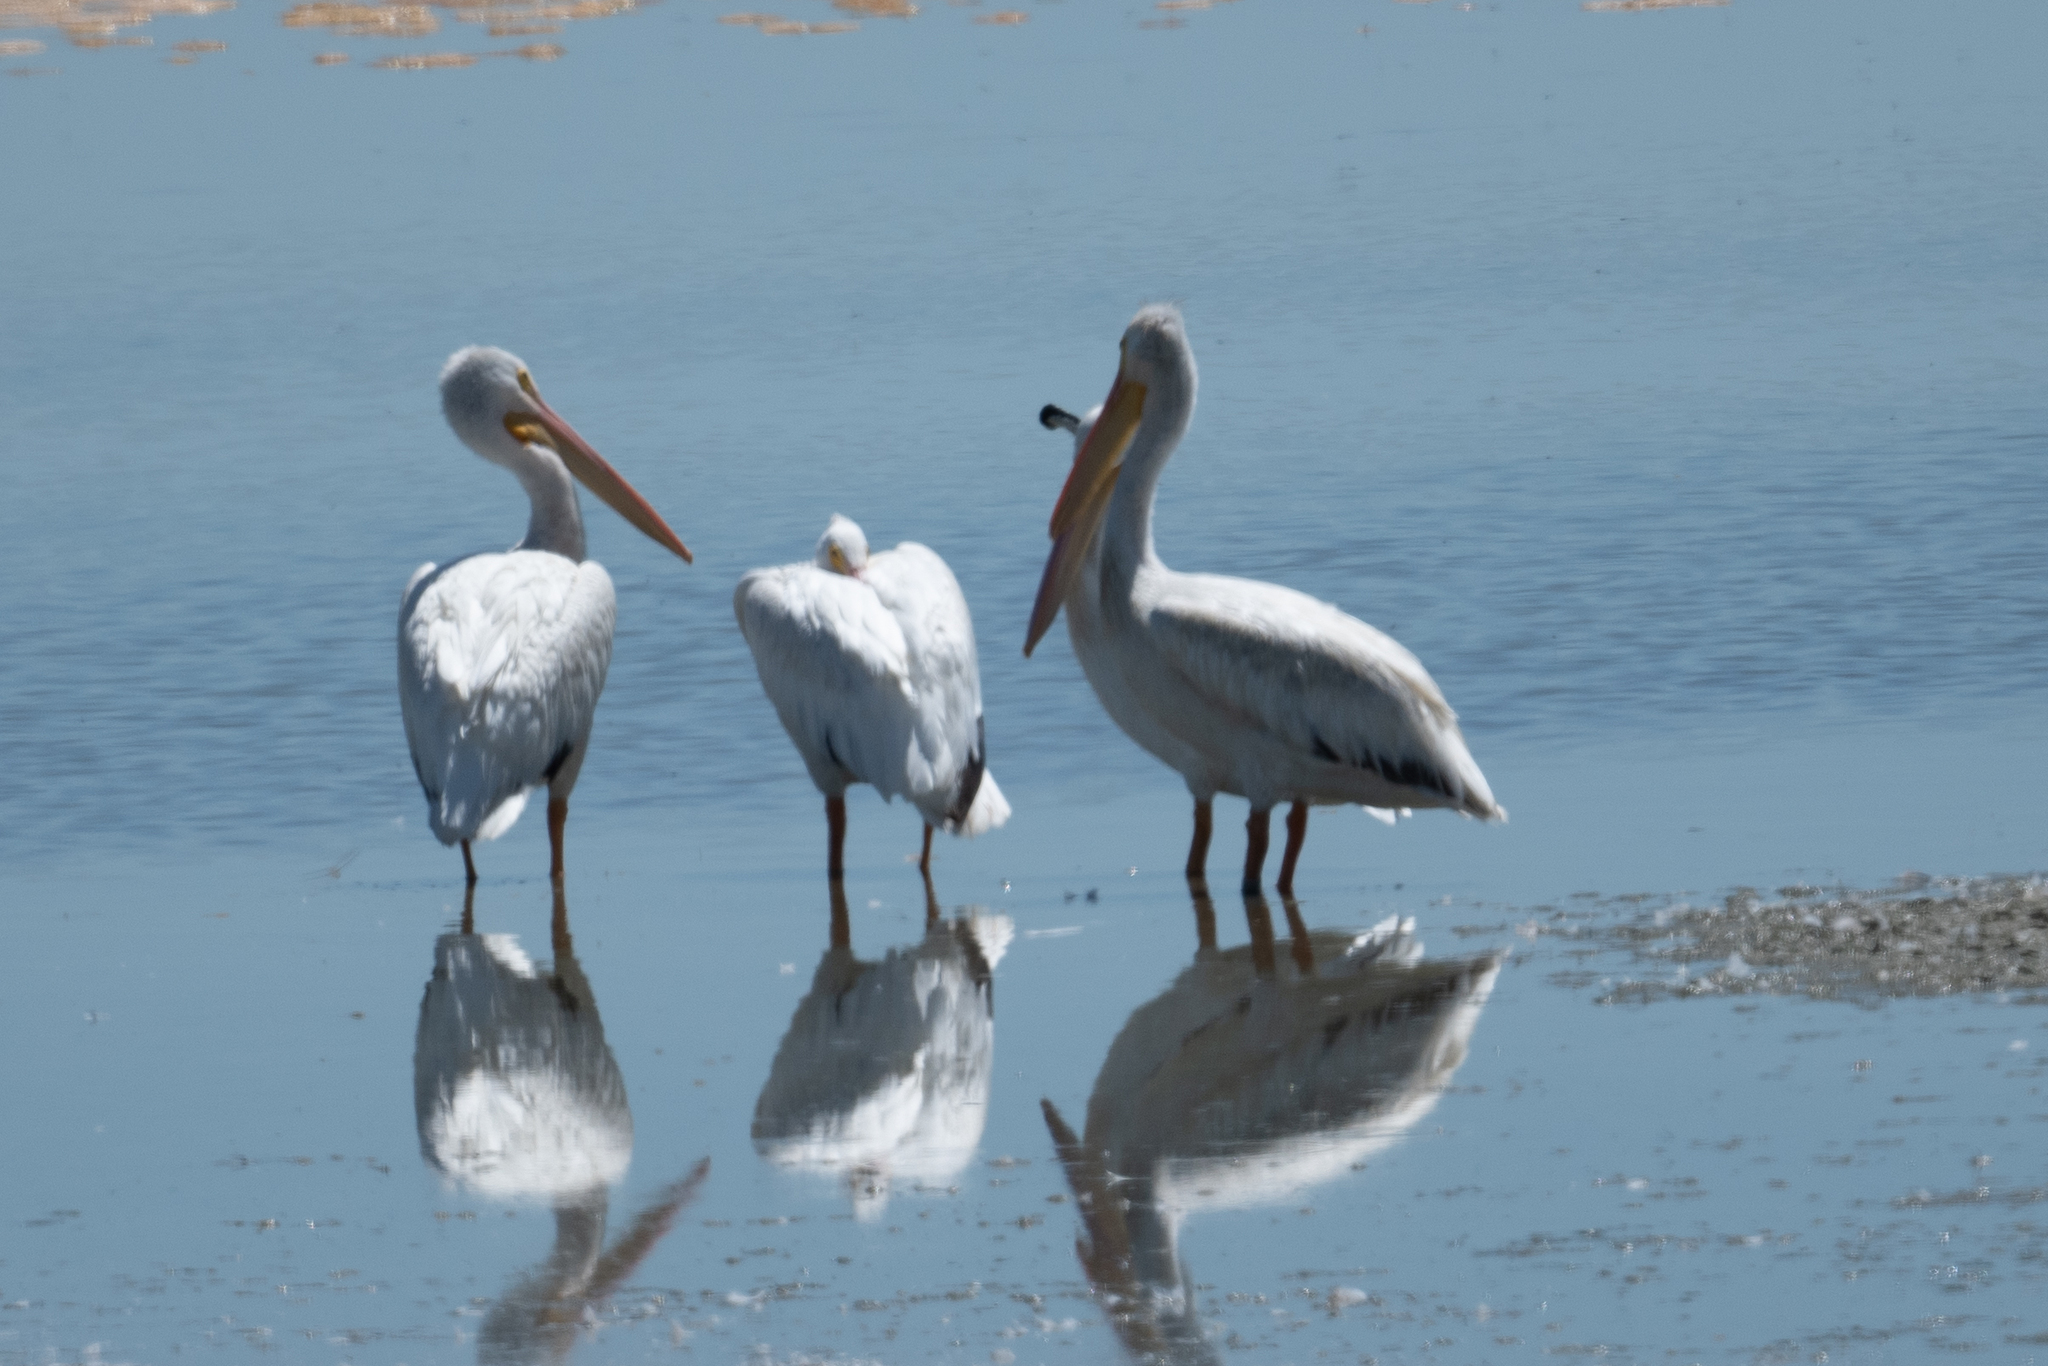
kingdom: Animalia
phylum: Chordata
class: Aves
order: Pelecaniformes
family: Pelecanidae
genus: Pelecanus
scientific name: Pelecanus erythrorhynchos
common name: American white pelican
